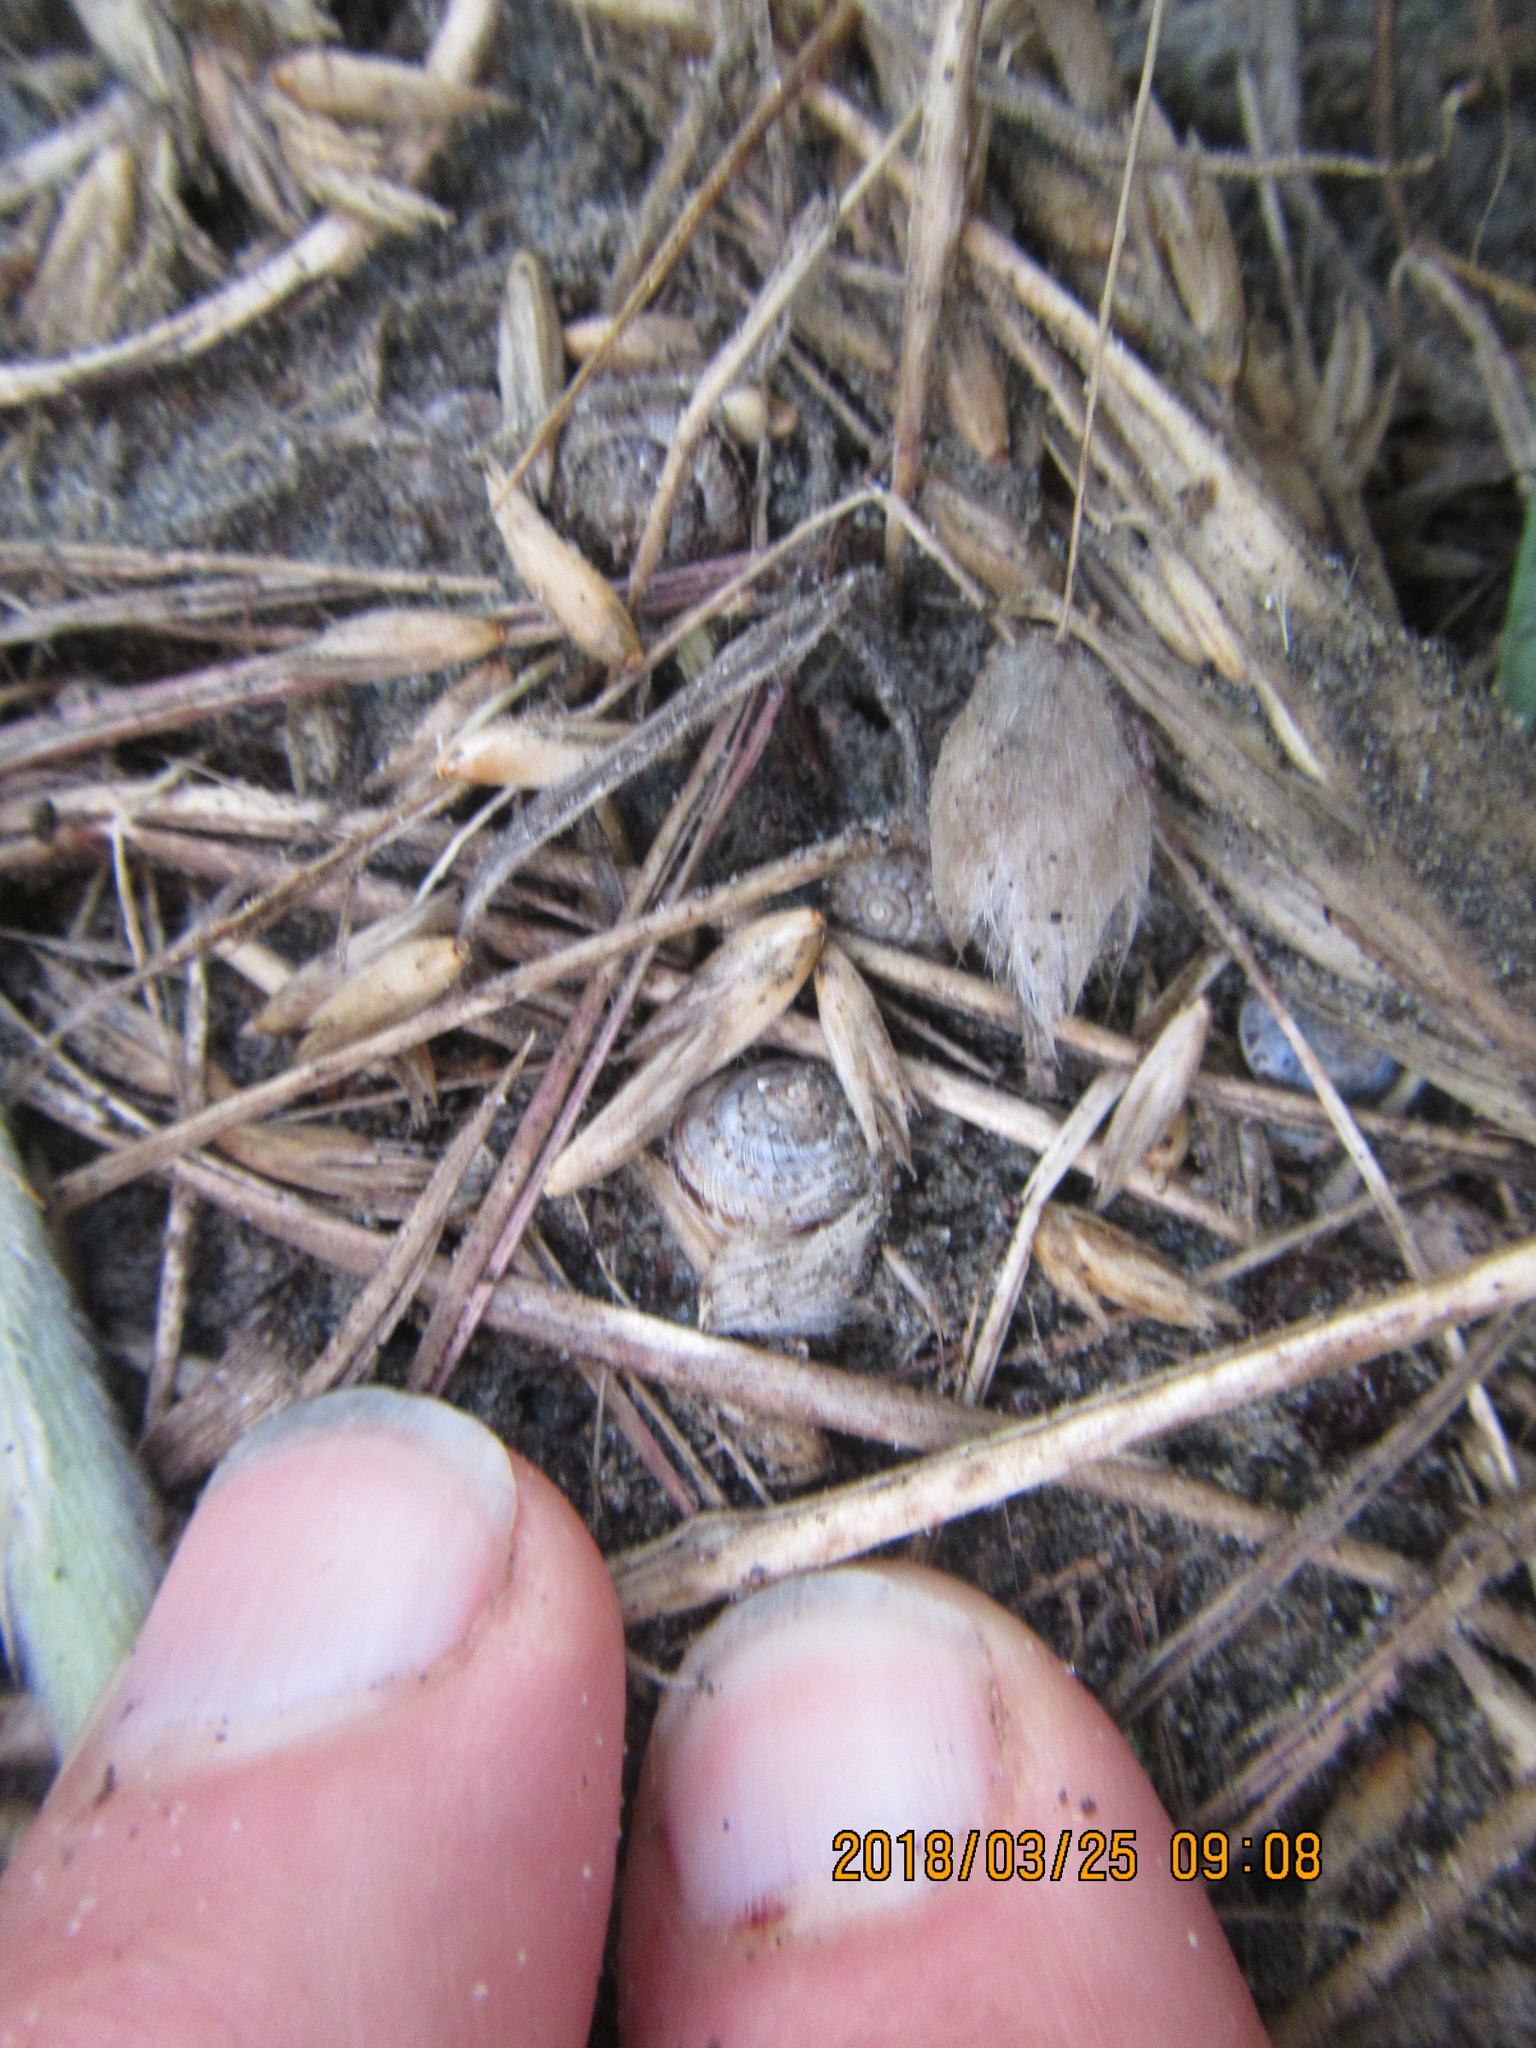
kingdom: Animalia
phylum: Mollusca
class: Gastropoda
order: Stylommatophora
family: Geomitridae
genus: Xeroplexa
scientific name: Xeroplexa intersecta
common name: Wrinkled snail
